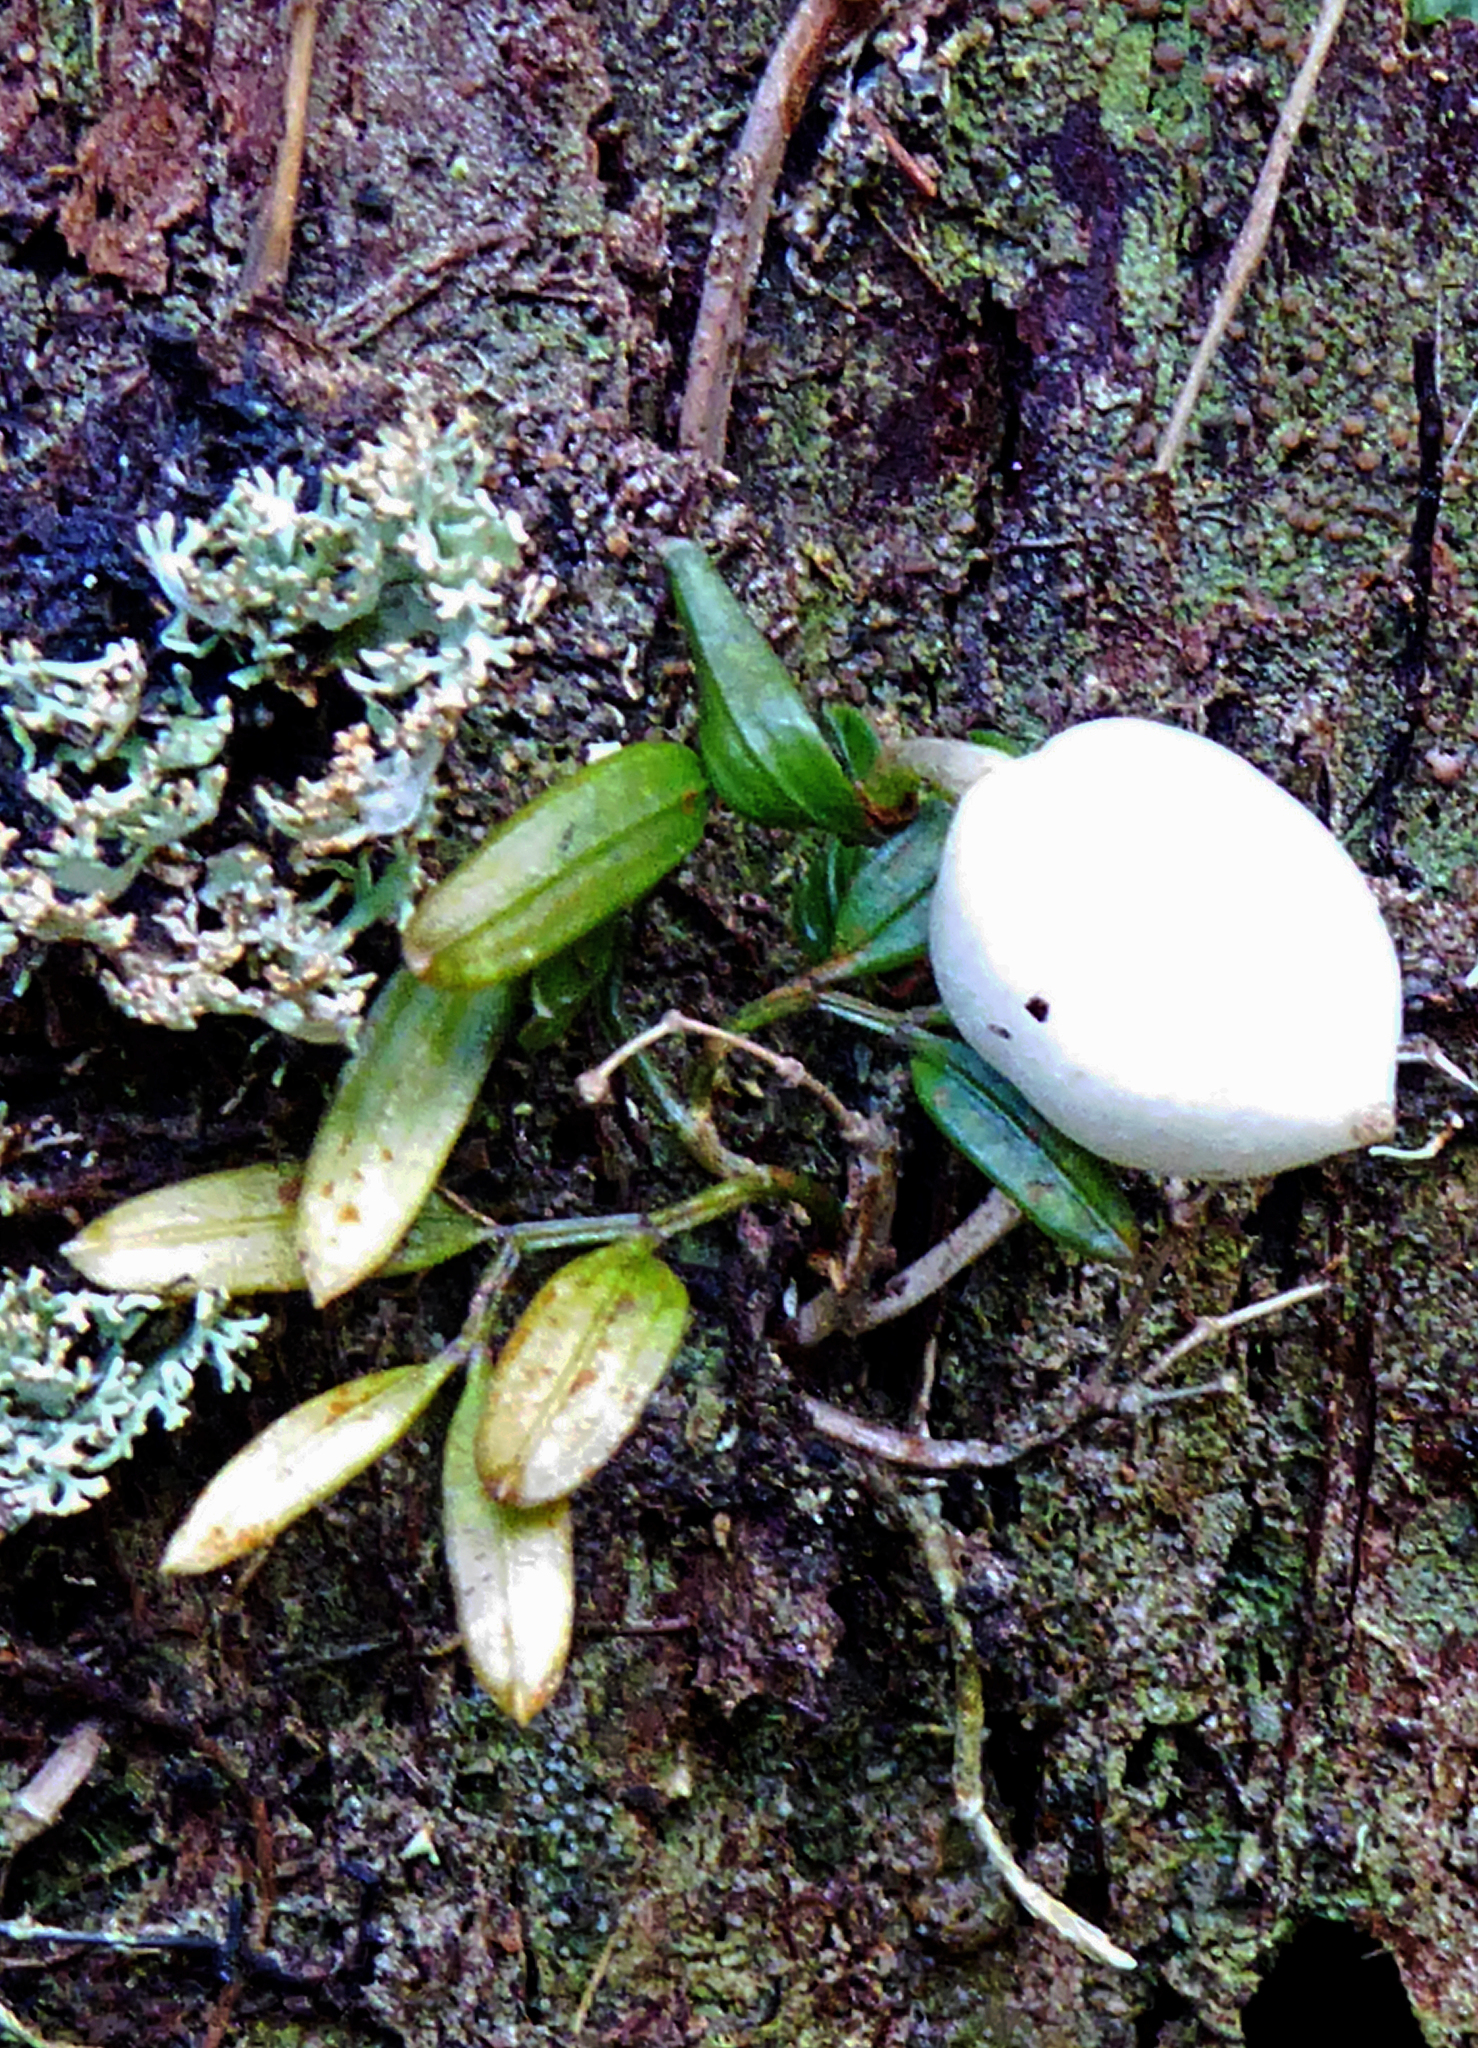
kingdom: Plantae
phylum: Tracheophyta
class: Liliopsida
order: Liliales
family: Alstroemeriaceae
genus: Luzuriaga
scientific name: Luzuriaga parviflora
